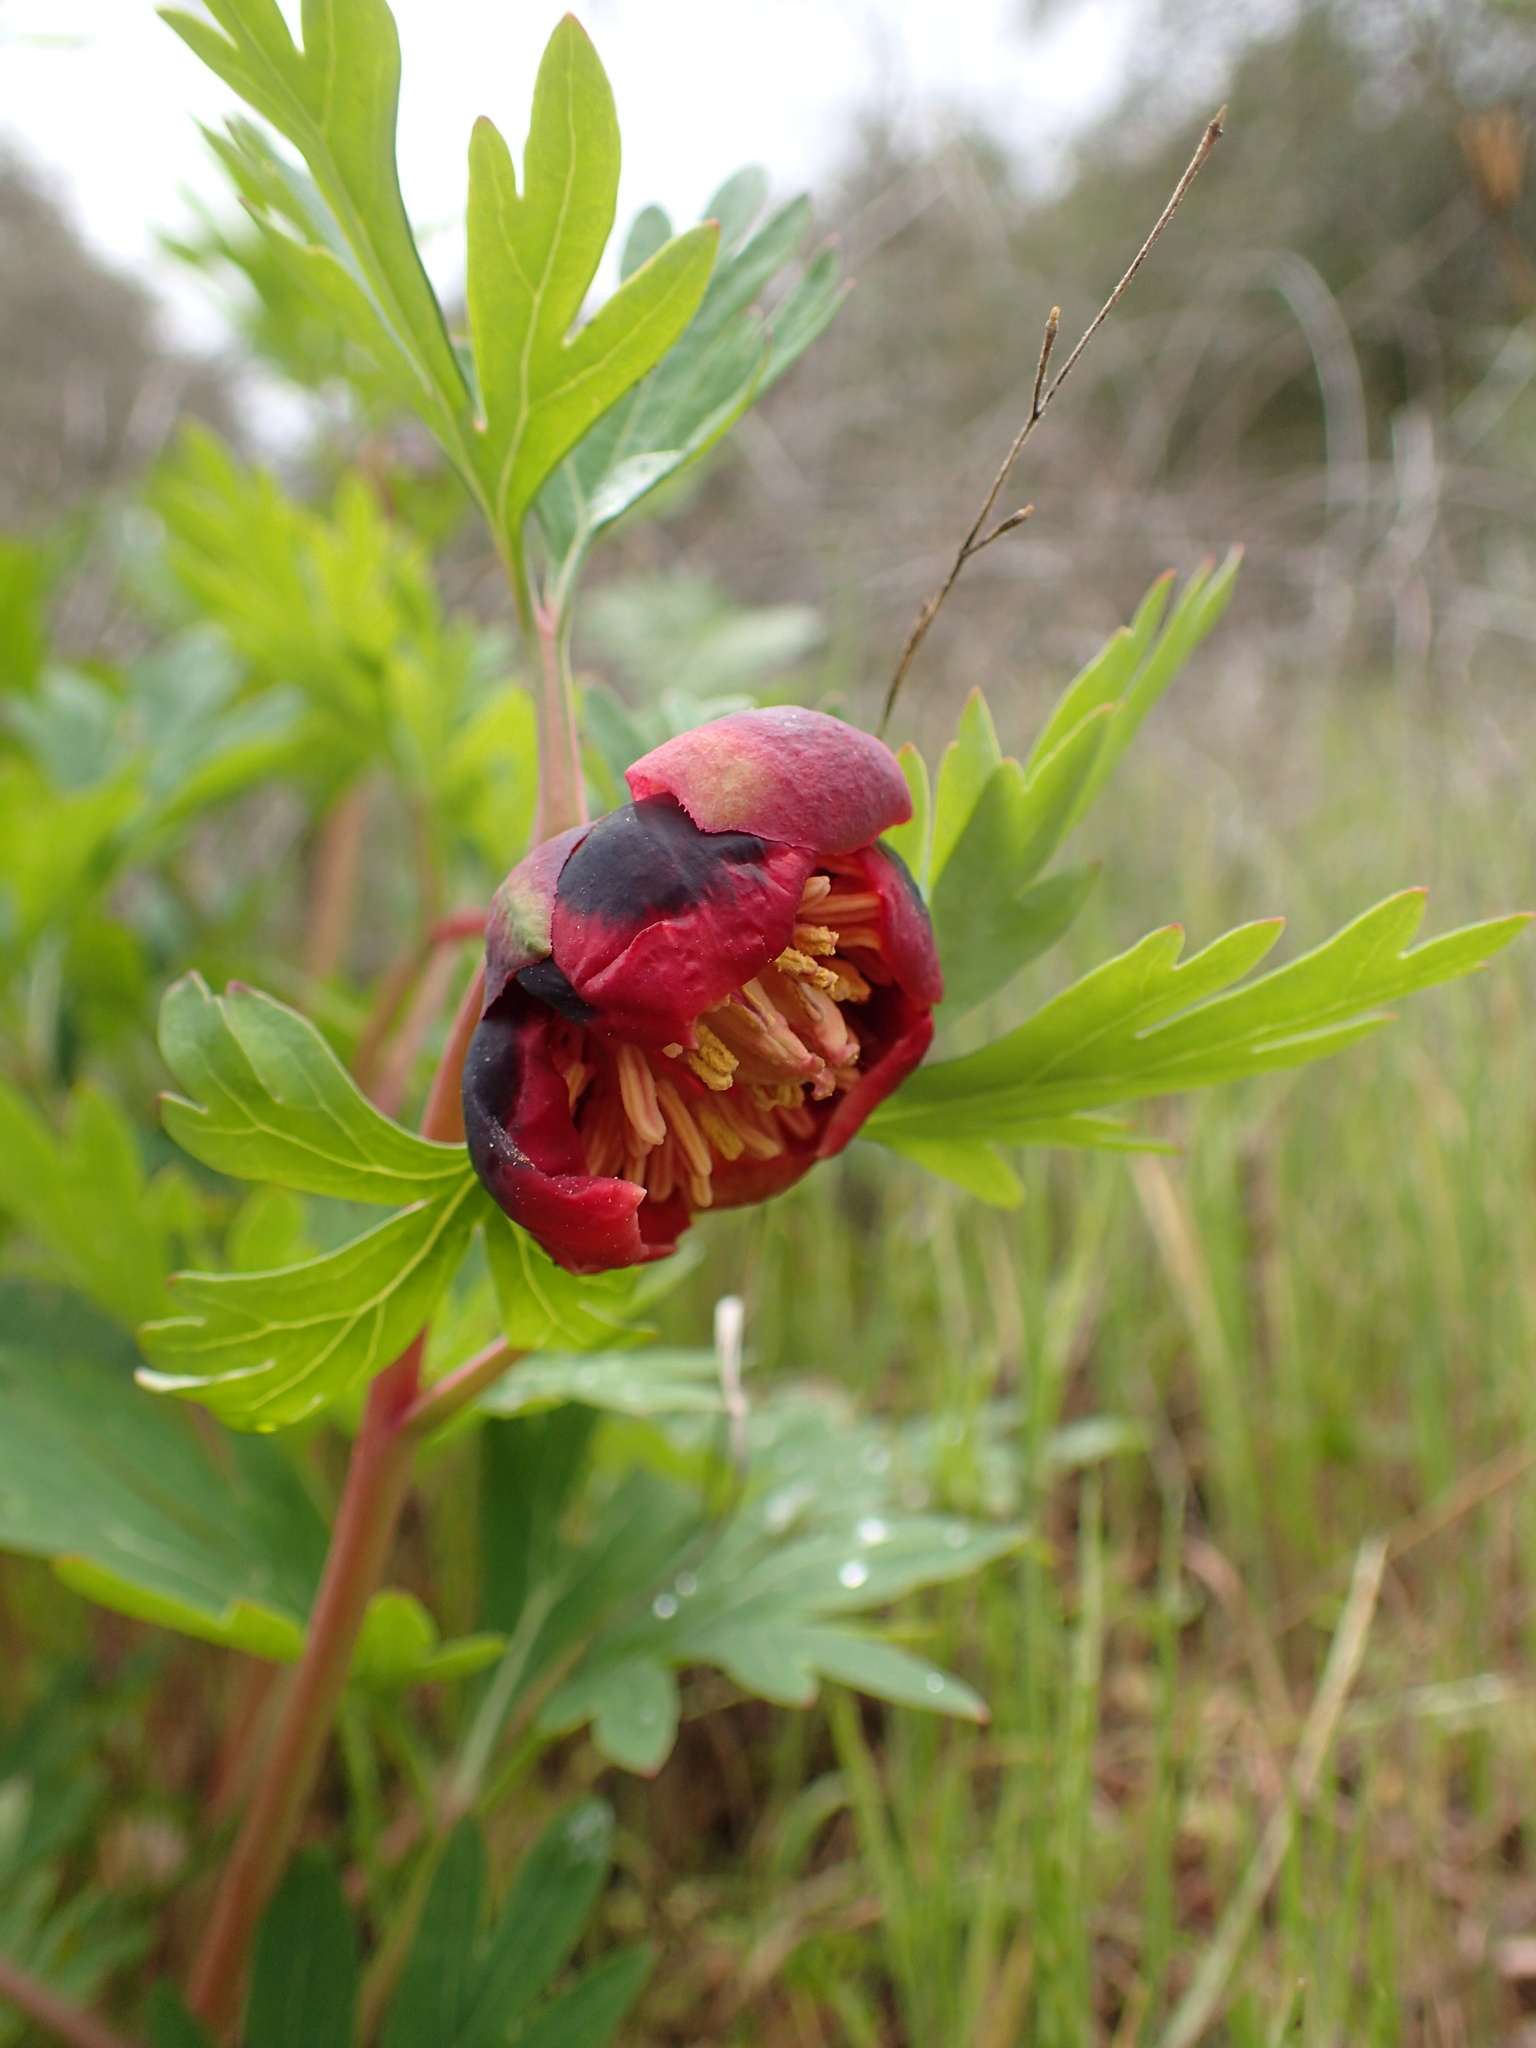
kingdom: Plantae
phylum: Tracheophyta
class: Magnoliopsida
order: Saxifragales
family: Paeoniaceae
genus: Paeonia
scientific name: Paeonia californica
